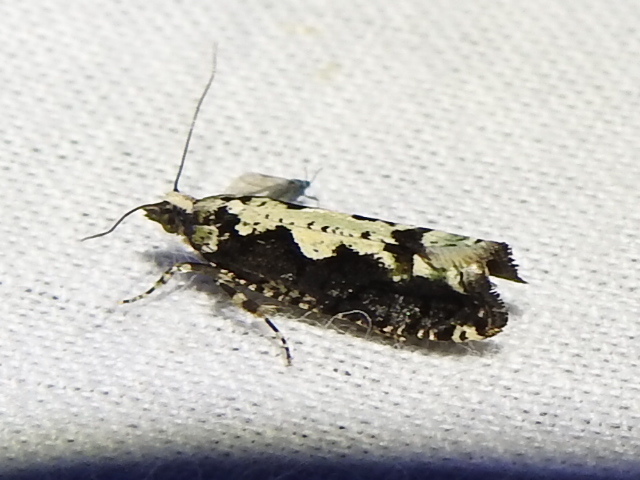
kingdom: Animalia
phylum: Arthropoda
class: Insecta
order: Lepidoptera
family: Tortricidae
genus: Chimoptesis
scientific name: Chimoptesis pennsylvaniana
